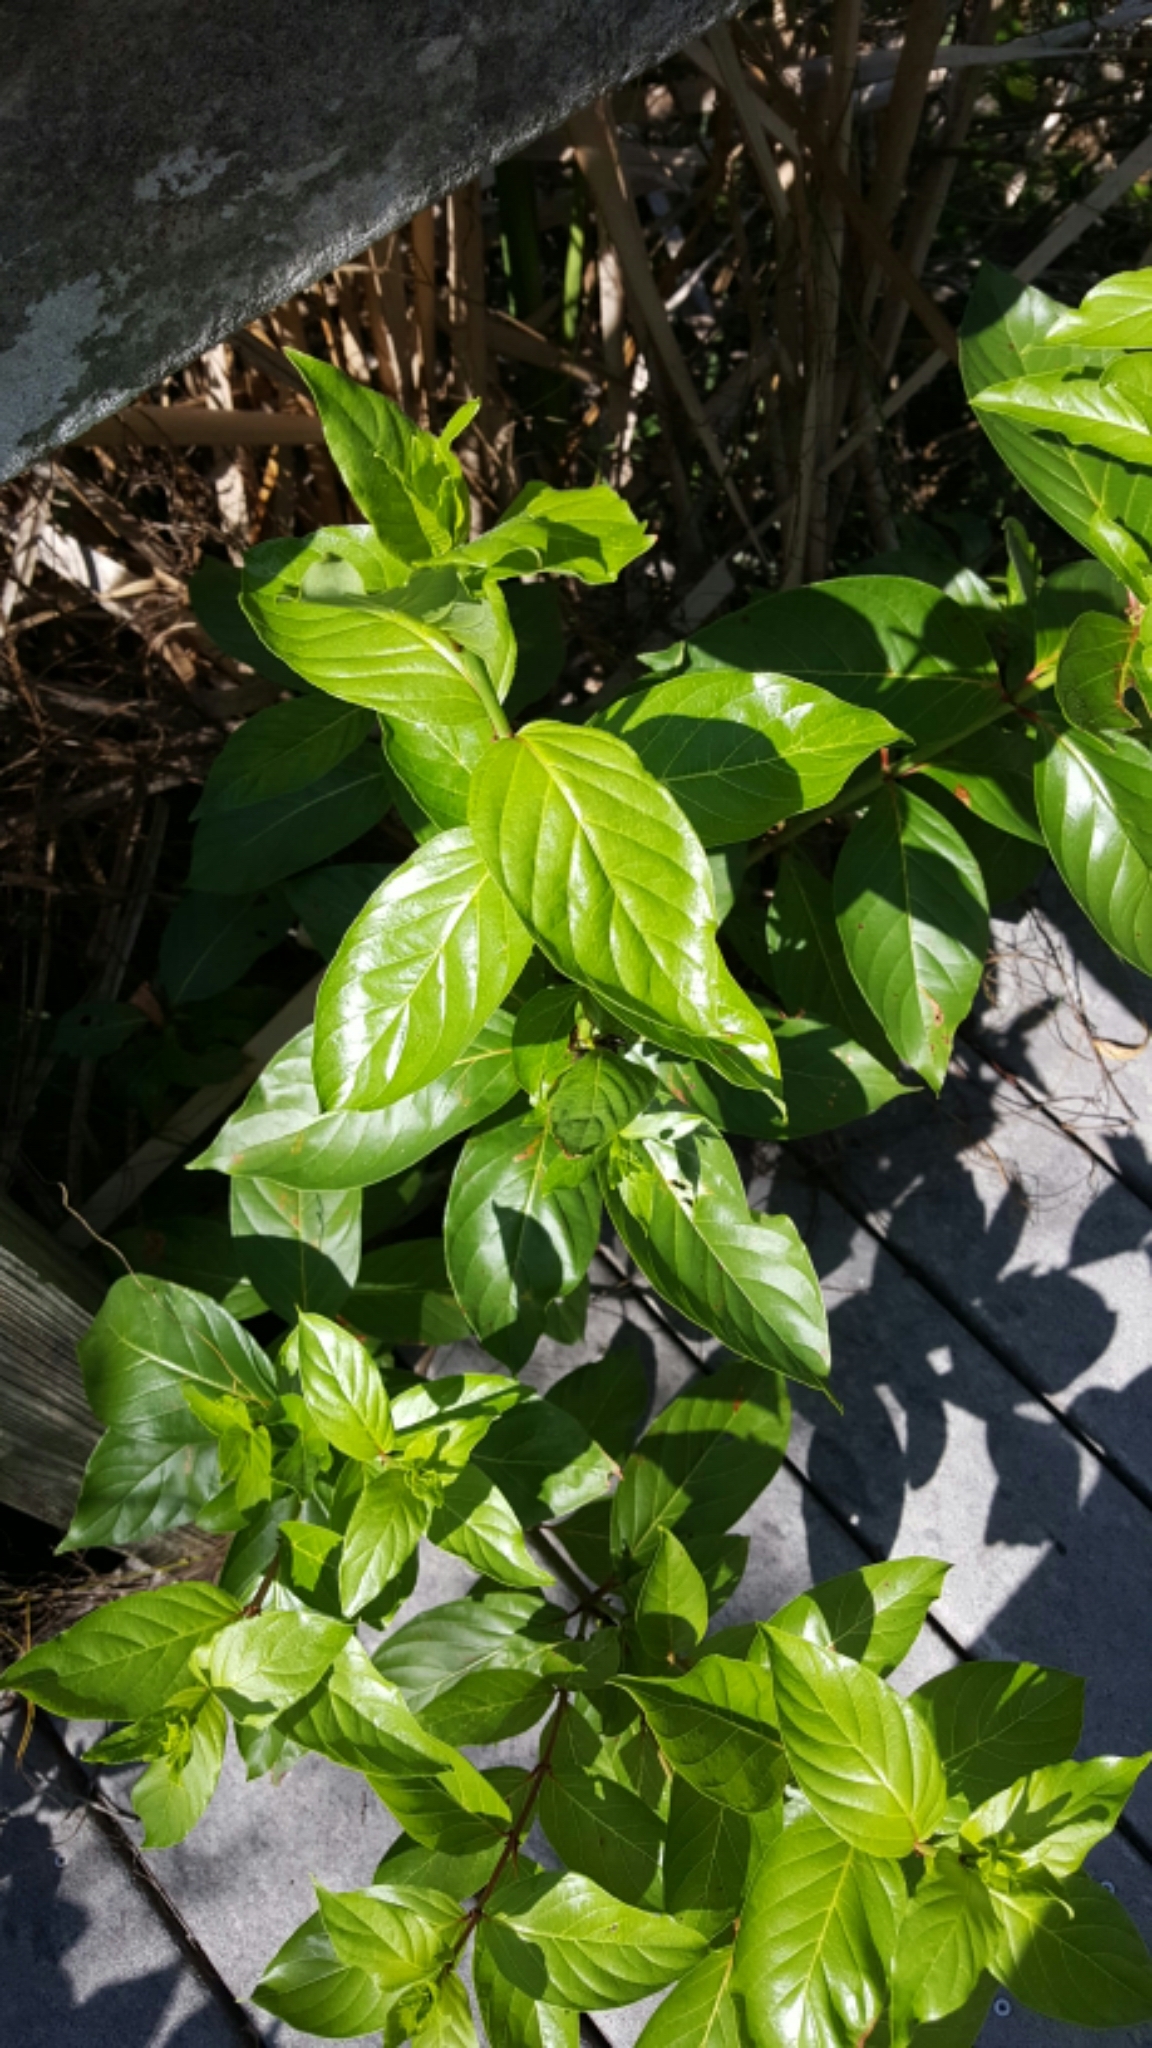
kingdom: Plantae
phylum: Tracheophyta
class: Magnoliopsida
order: Gentianales
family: Rubiaceae
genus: Cephalanthus
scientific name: Cephalanthus occidentalis
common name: Button-willow
